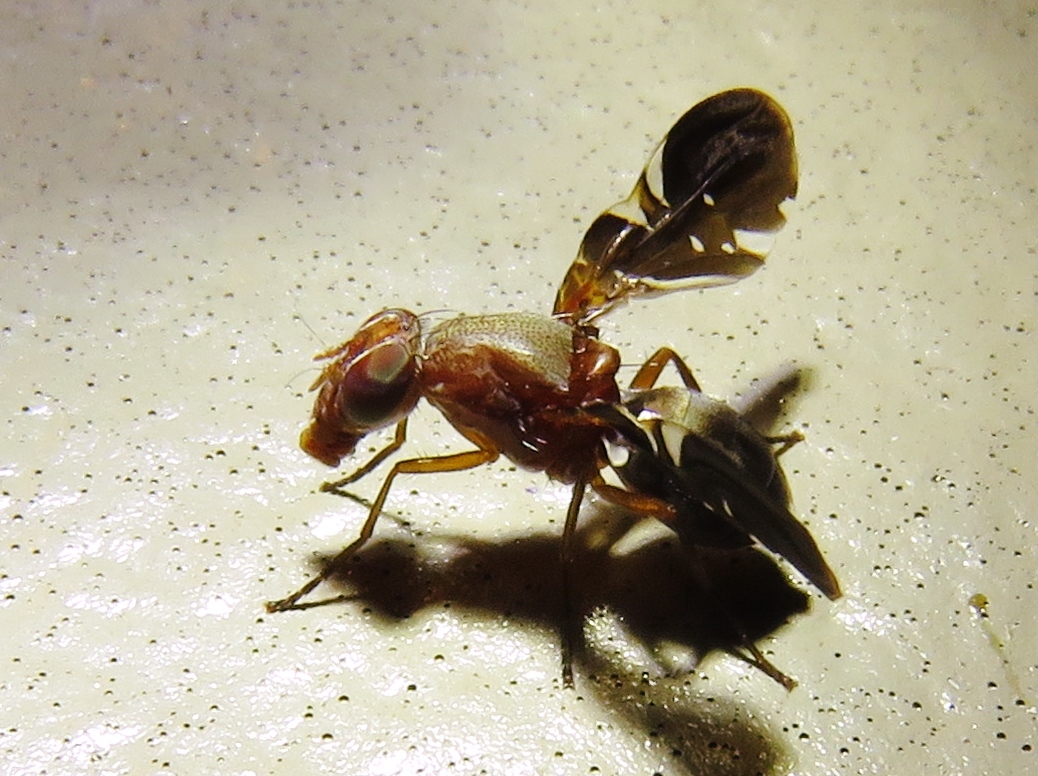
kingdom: Animalia
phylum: Arthropoda
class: Insecta
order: Diptera
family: Ulidiidae
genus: Delphinia
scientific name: Delphinia picta
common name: Common picture-winged fly
